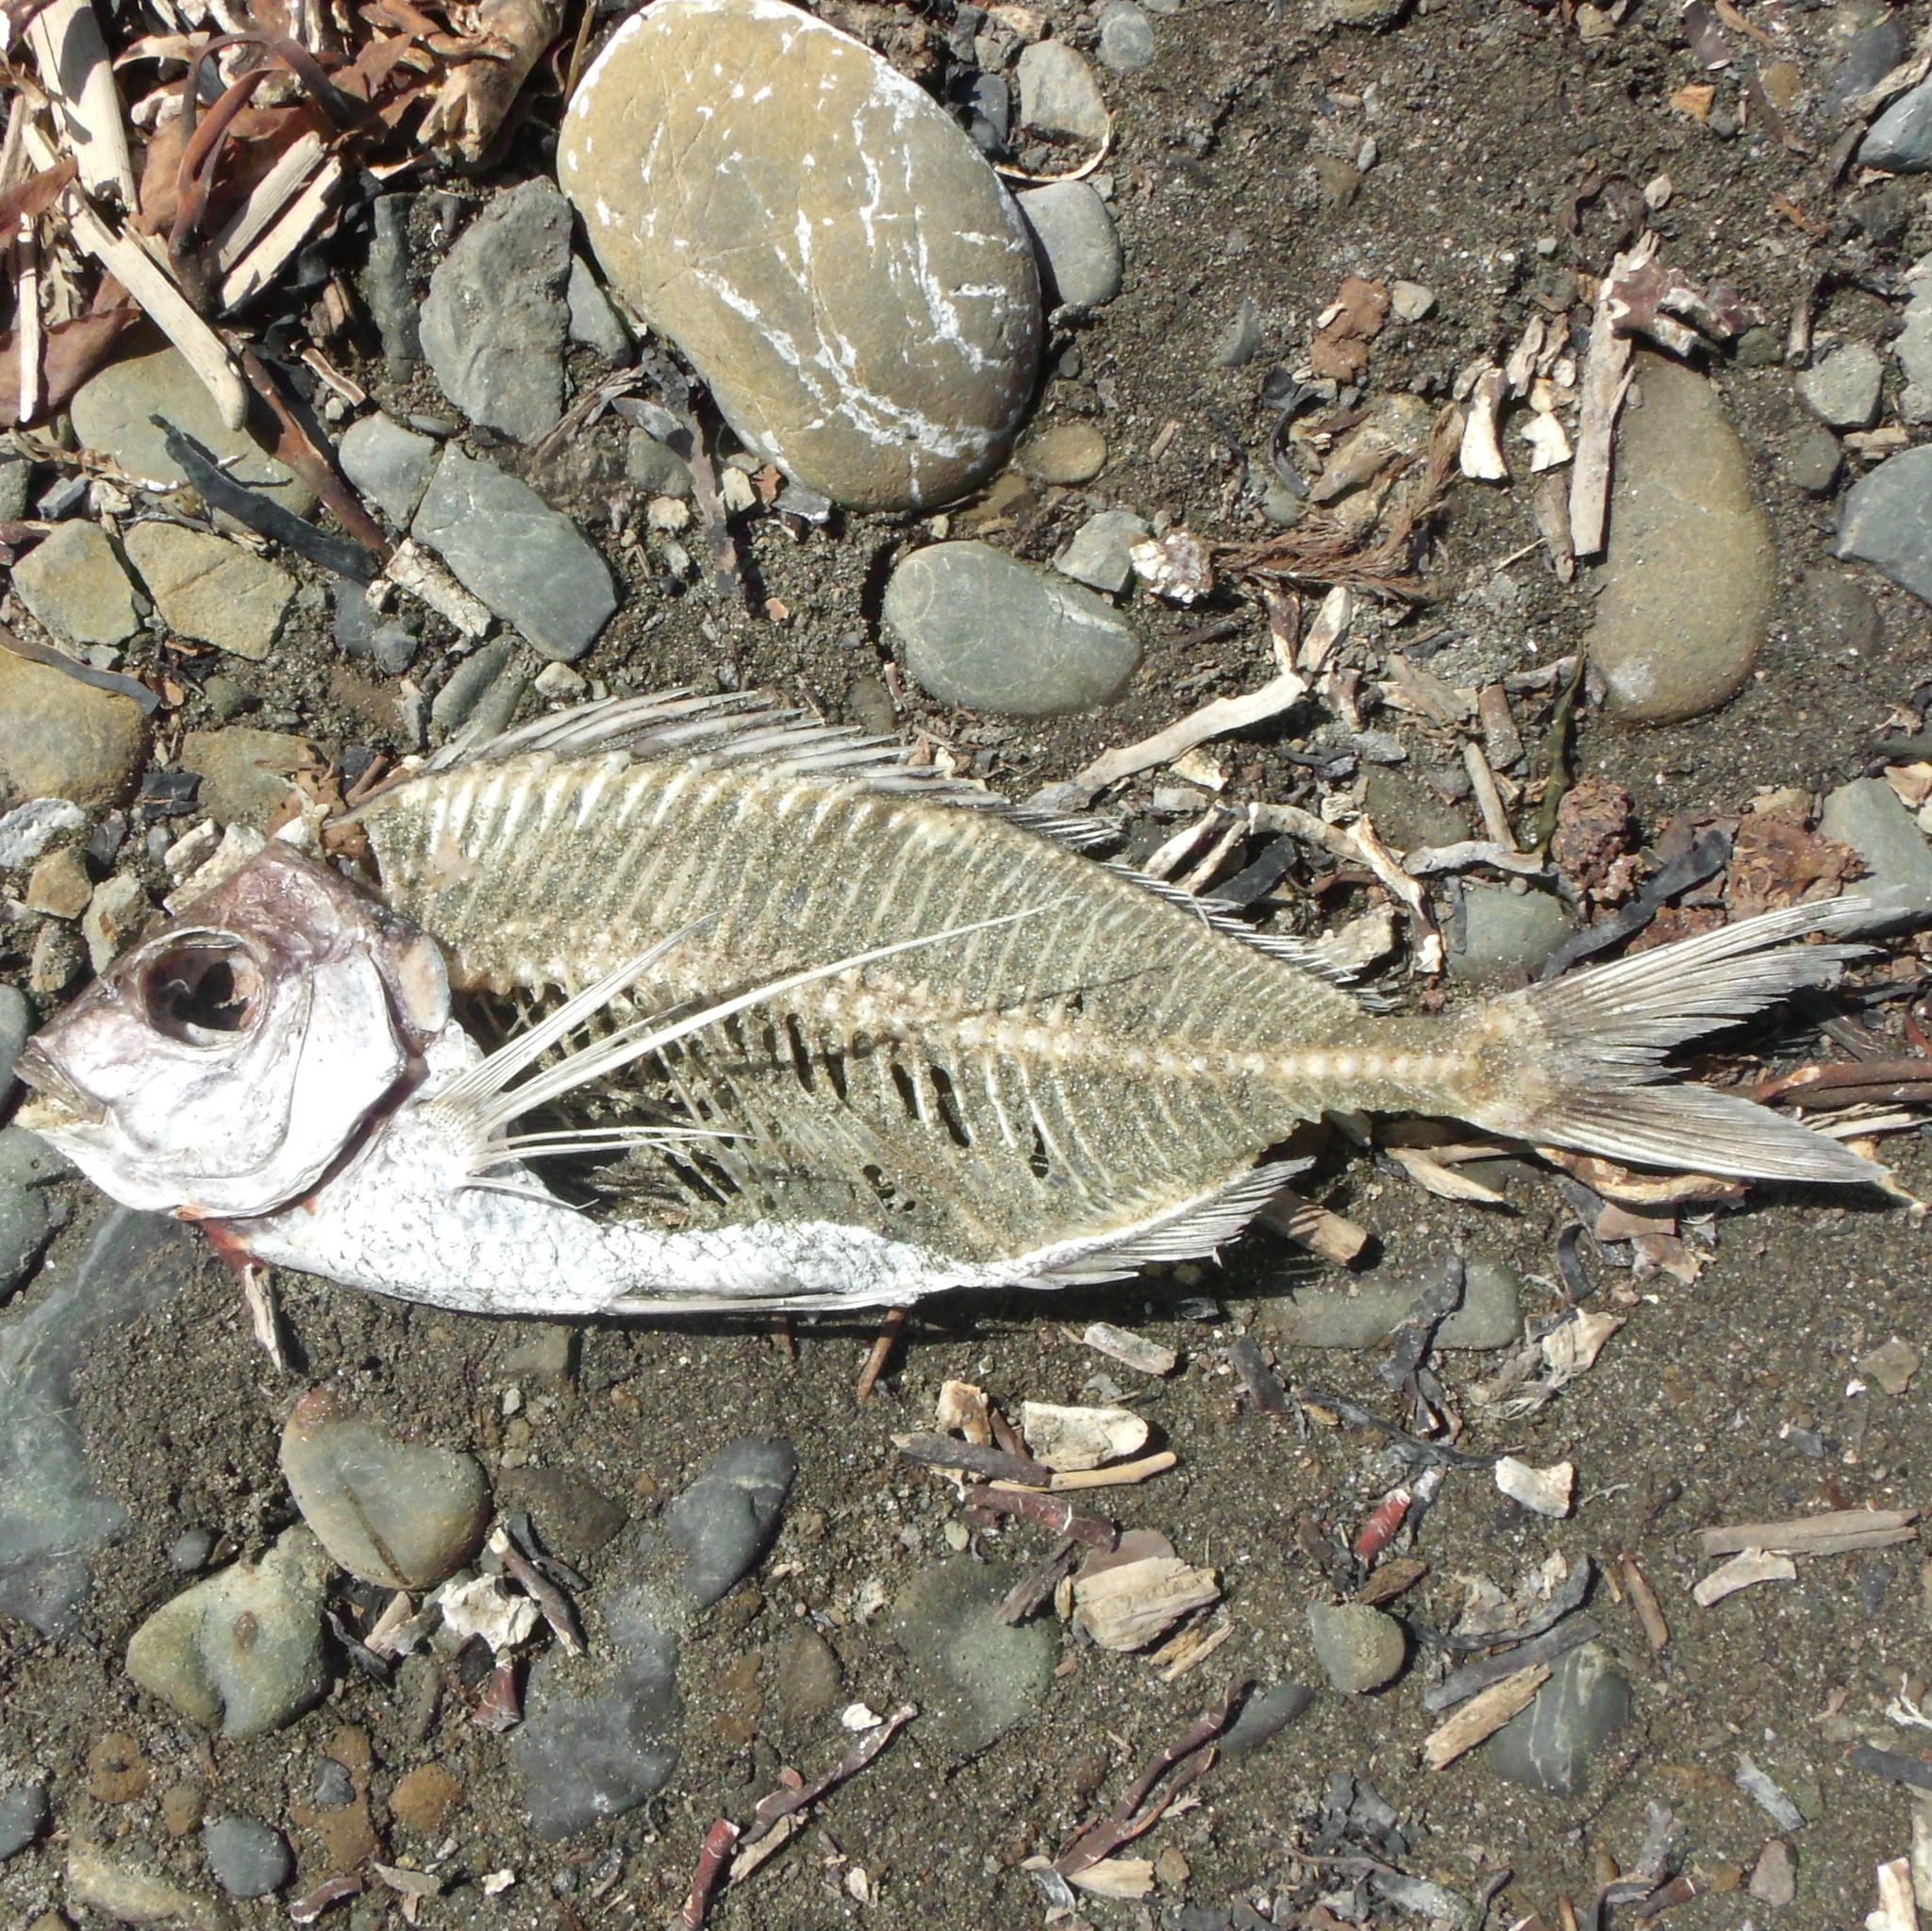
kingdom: Animalia
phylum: Chordata
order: Perciformes
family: Cheilodactylidae
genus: Nemadactylus
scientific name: Nemadactylus macropterus
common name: Tarakihi
